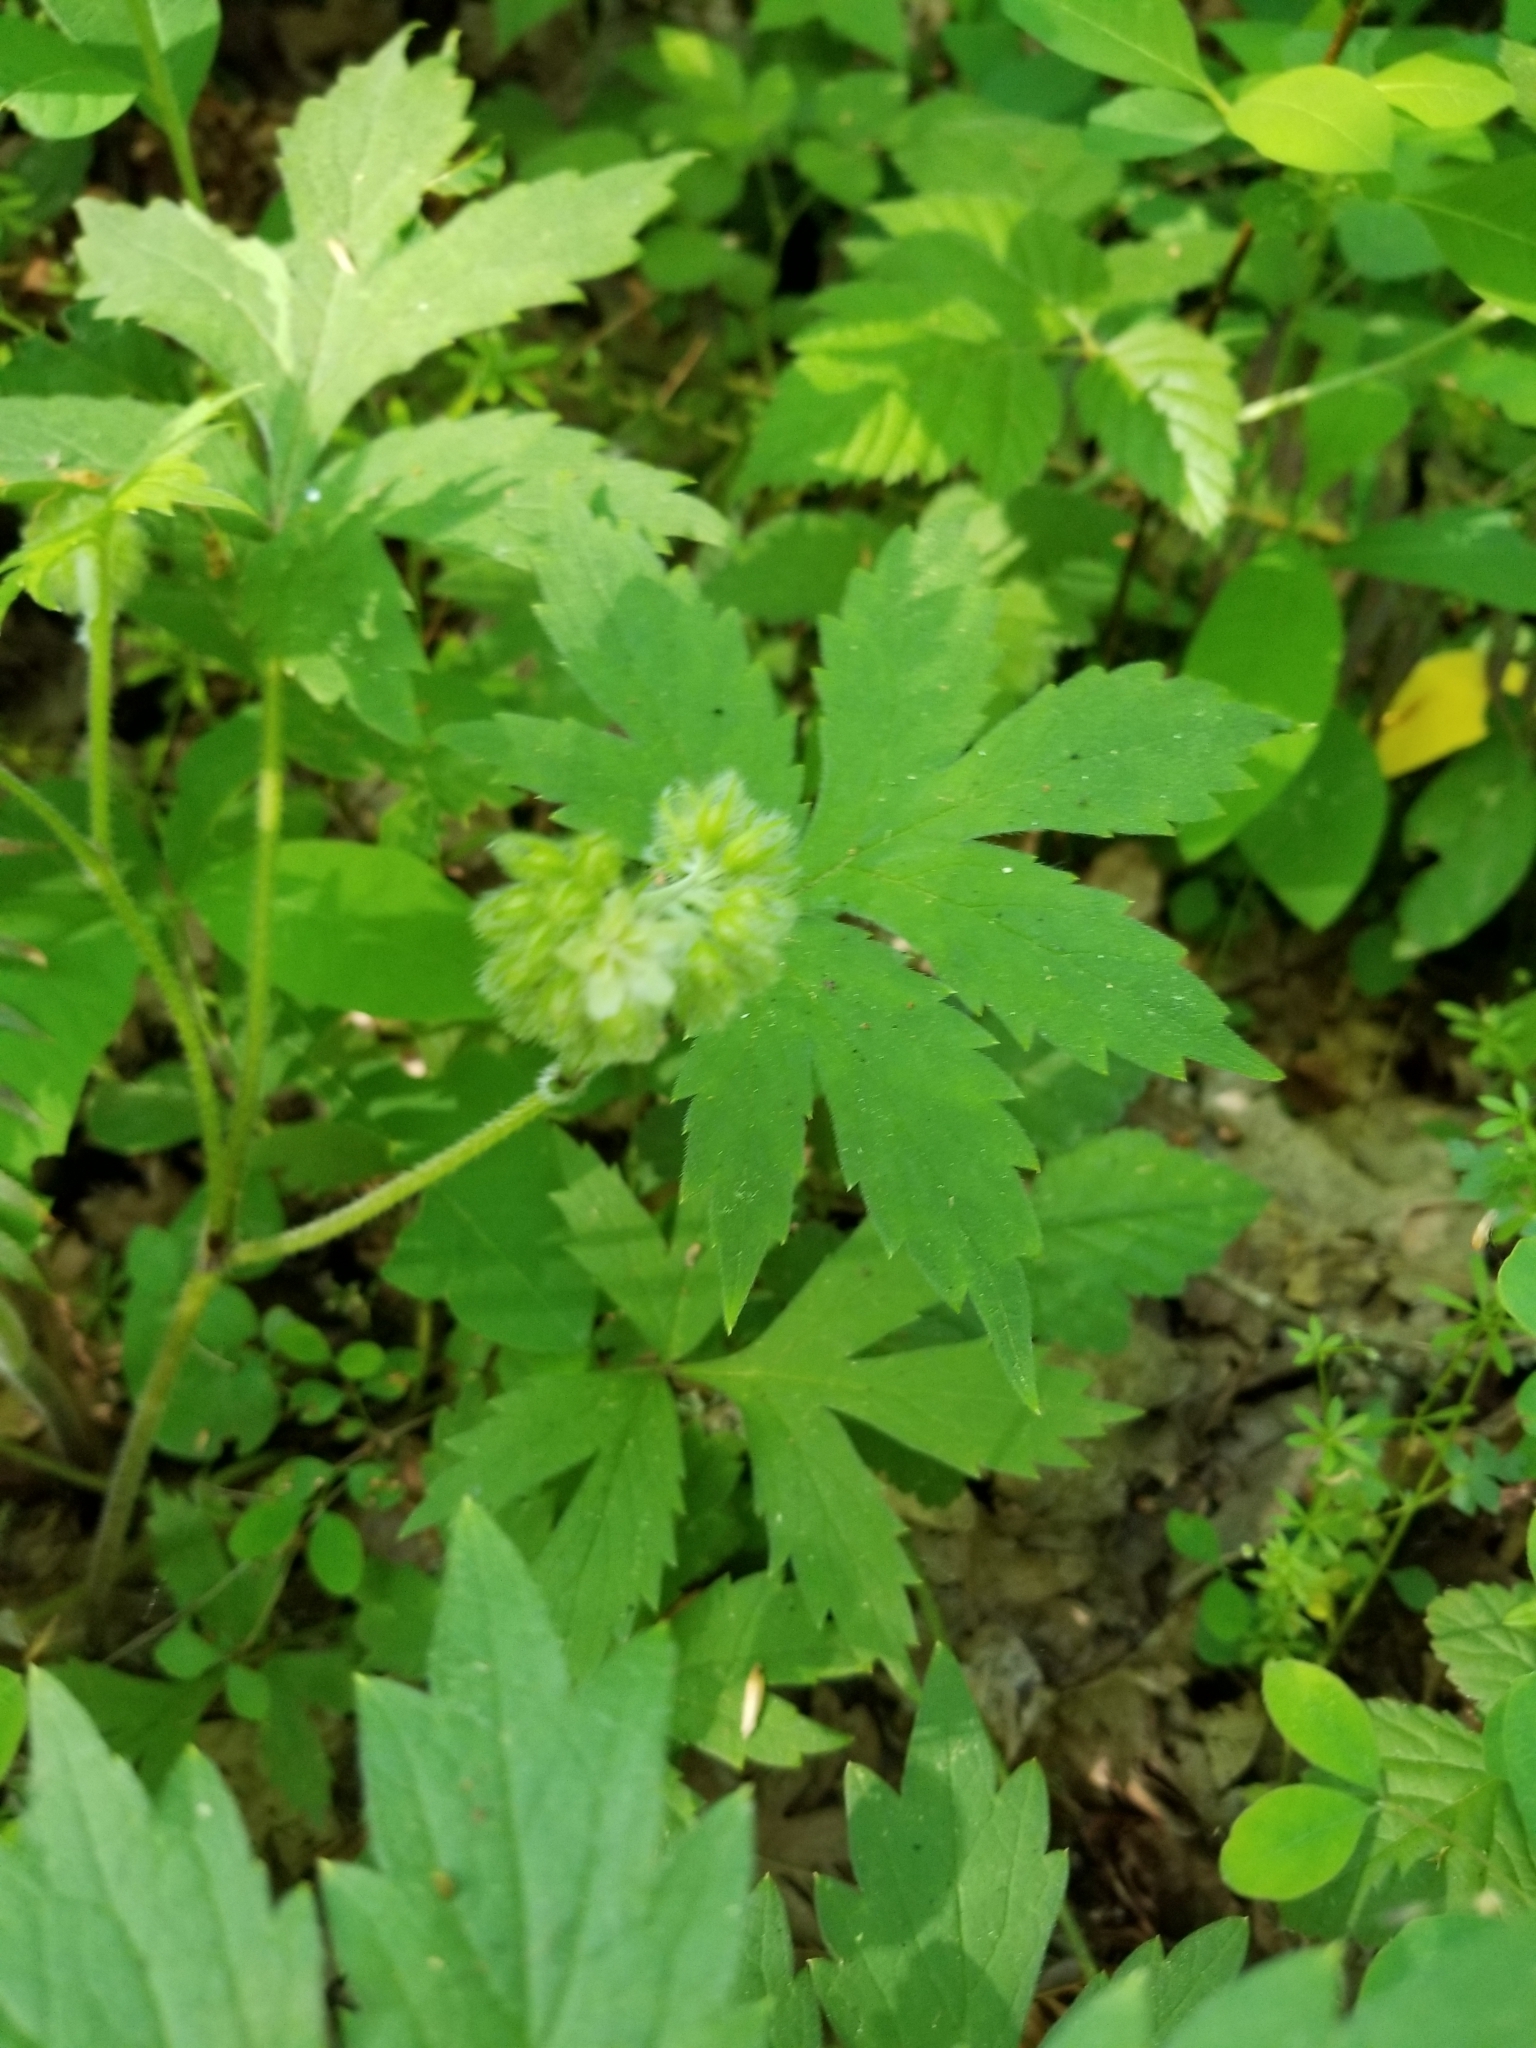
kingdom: Plantae
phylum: Tracheophyta
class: Magnoliopsida
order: Boraginales
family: Hydrophyllaceae
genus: Hydrophyllum
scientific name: Hydrophyllum tenuipes
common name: Pacific waterleaf
